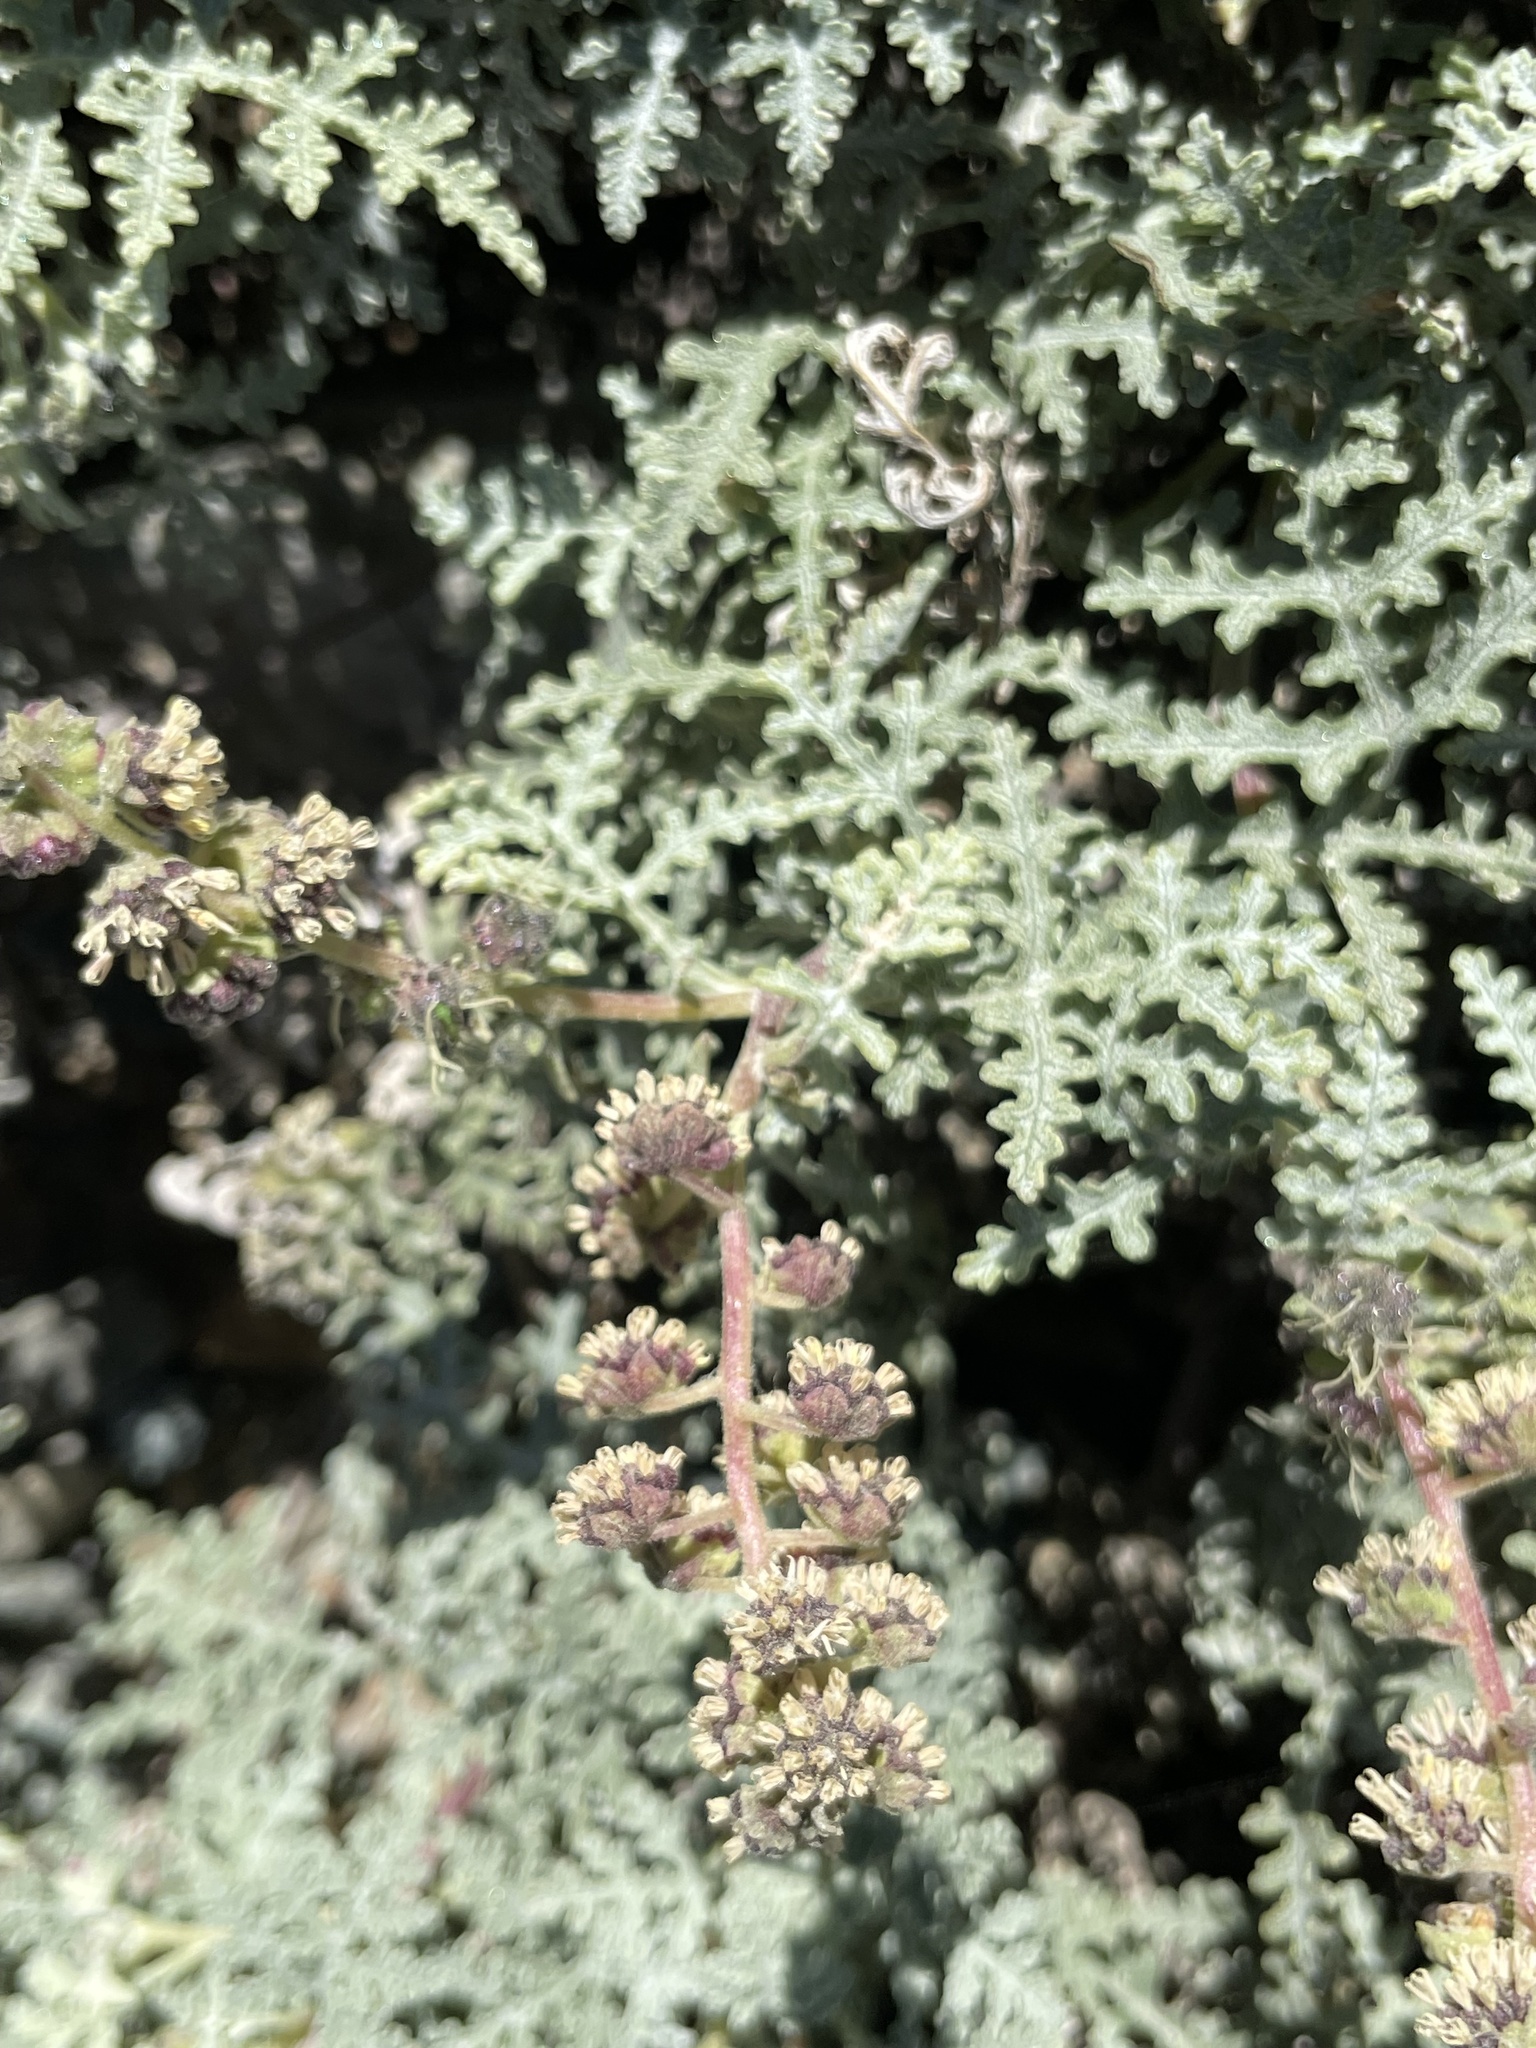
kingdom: Plantae
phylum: Tracheophyta
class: Magnoliopsida
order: Asterales
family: Asteraceae
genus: Ambrosia
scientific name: Ambrosia camphorata
